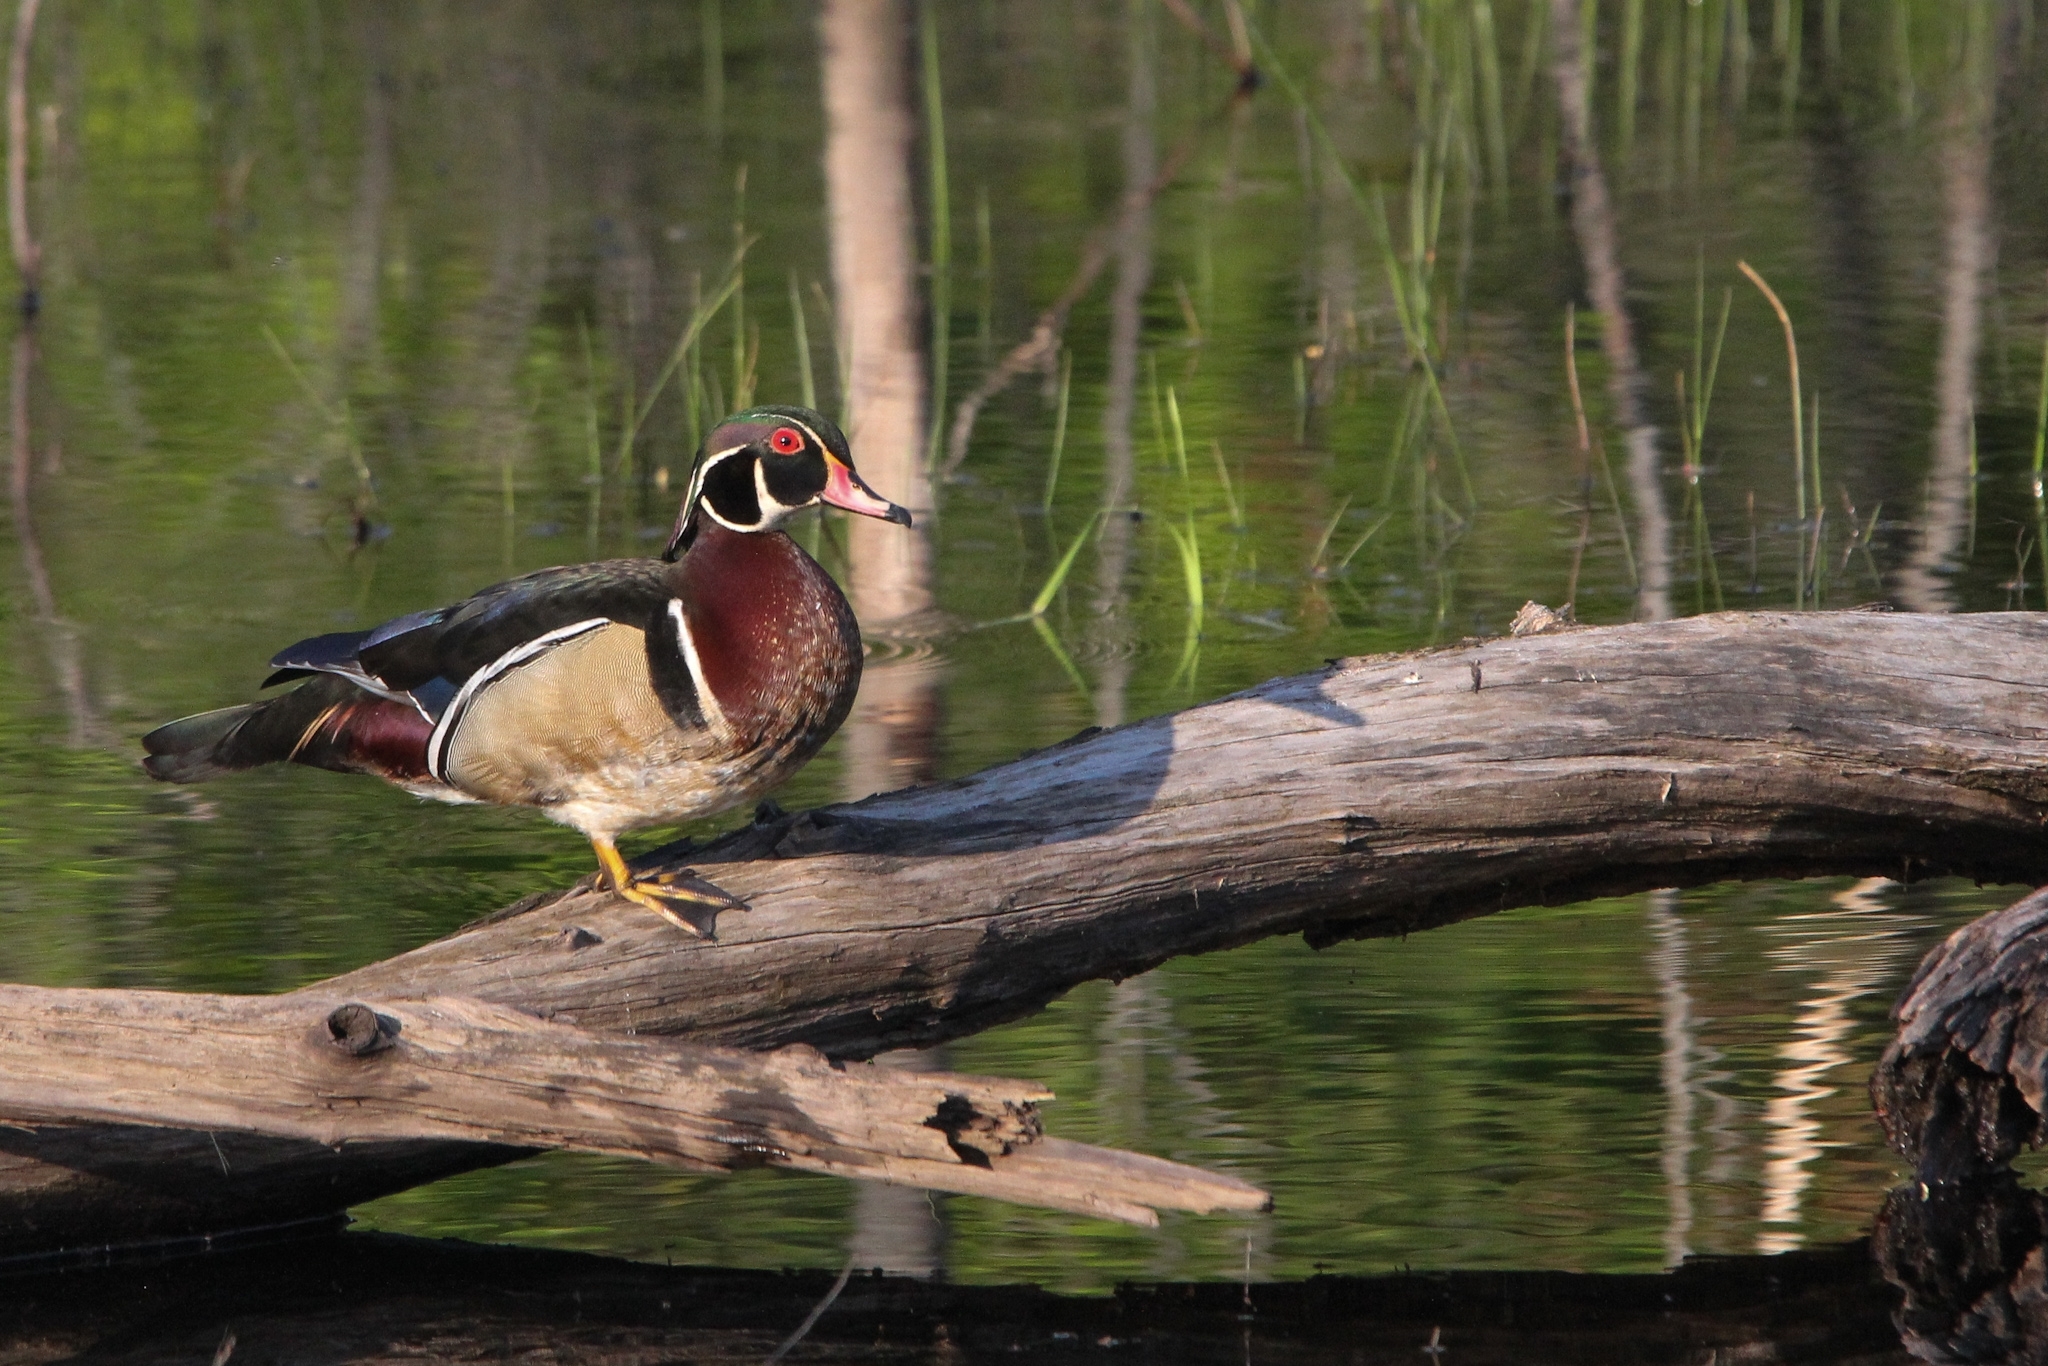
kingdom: Animalia
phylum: Chordata
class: Aves
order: Anseriformes
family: Anatidae
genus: Aix
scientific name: Aix sponsa
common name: Wood duck
